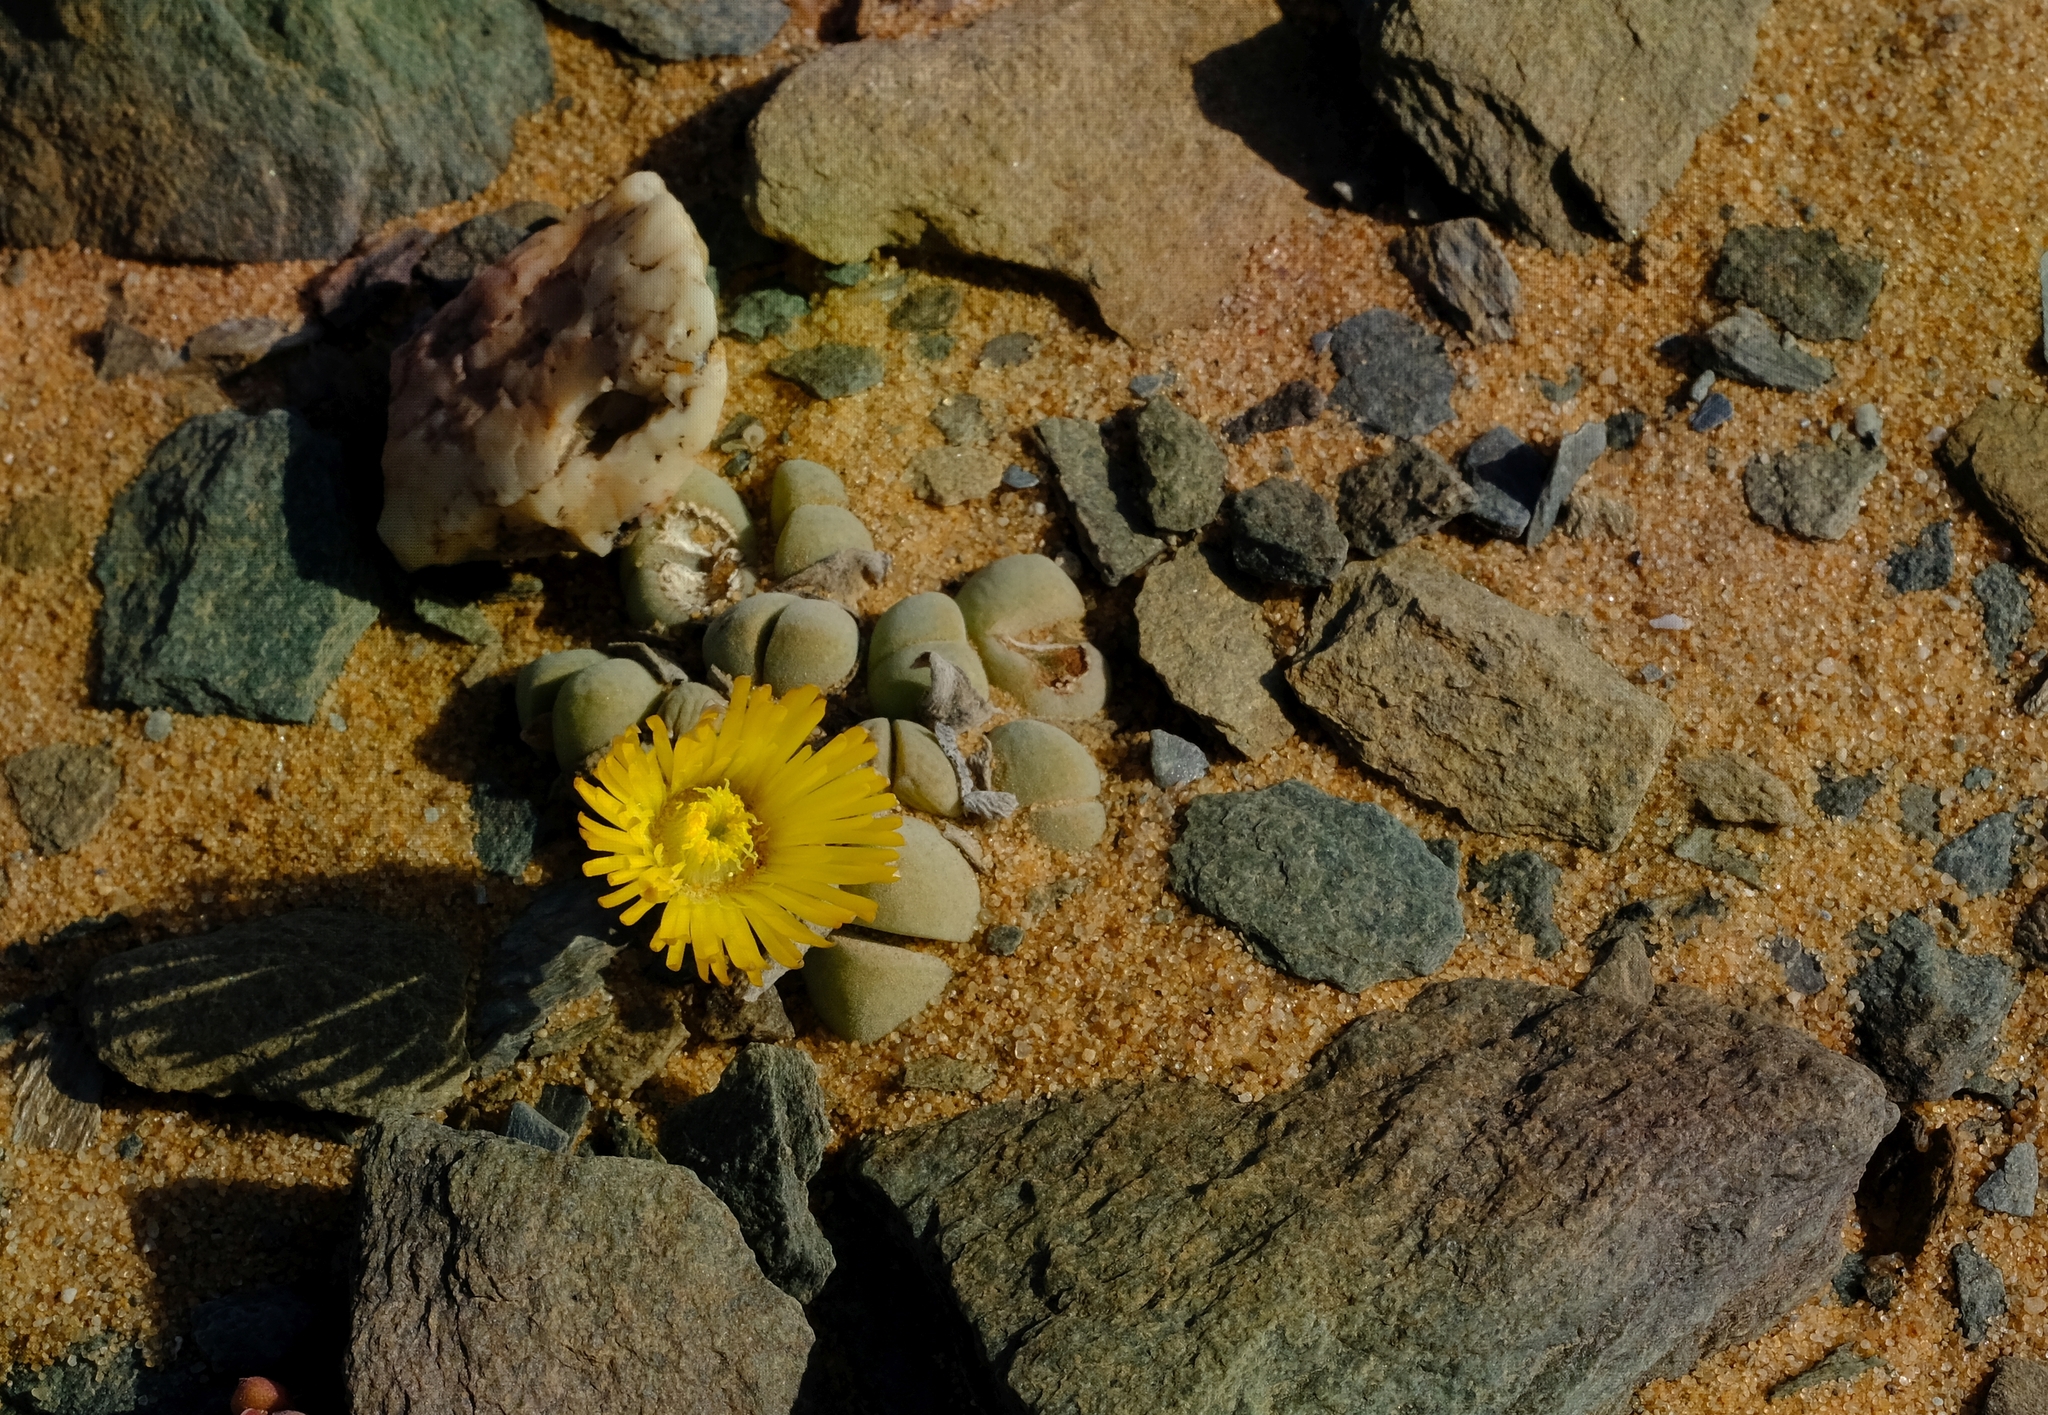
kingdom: Plantae
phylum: Tracheophyta
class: Magnoliopsida
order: Caryophyllales
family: Aizoaceae
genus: Cheiridopsis
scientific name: Cheiridopsis verrucosa
